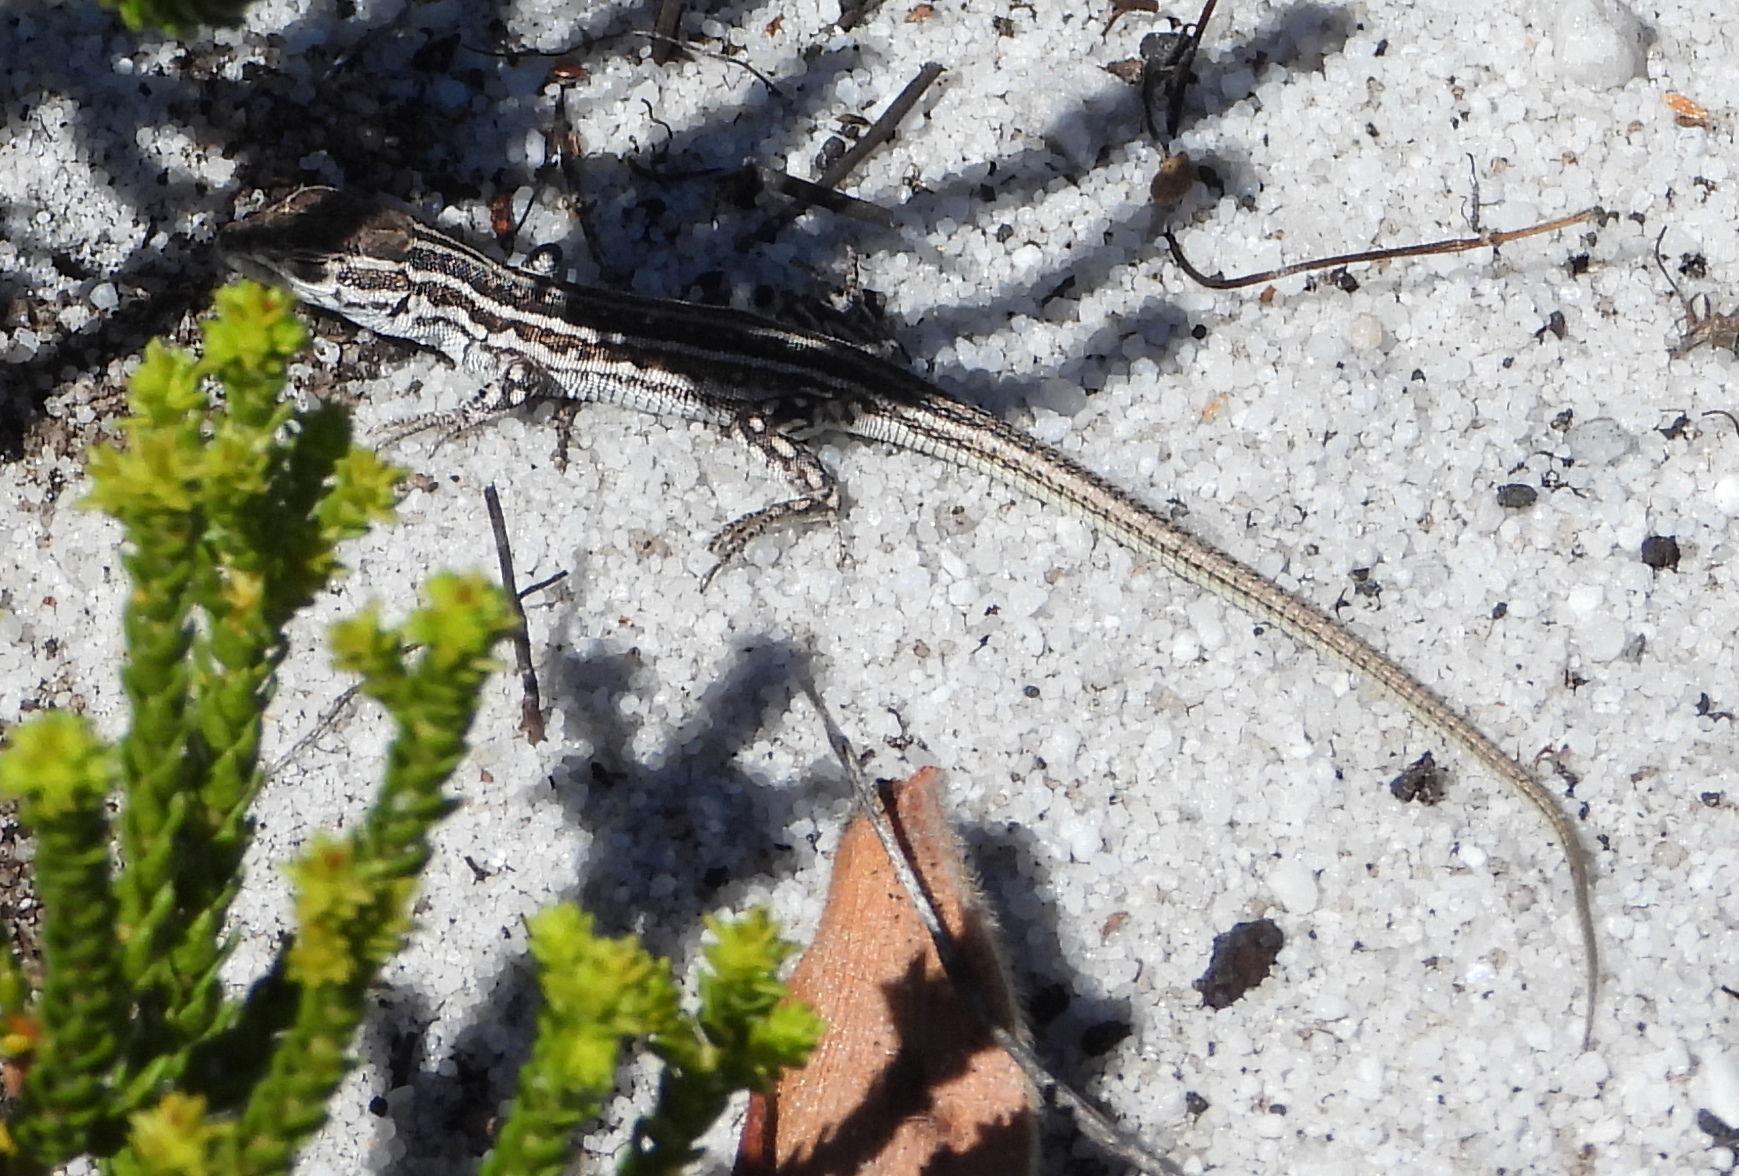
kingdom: Animalia
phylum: Chordata
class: Squamata
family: Lacertidae
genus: Meroles
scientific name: Meroles knoxii
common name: Knox's desert lizard
